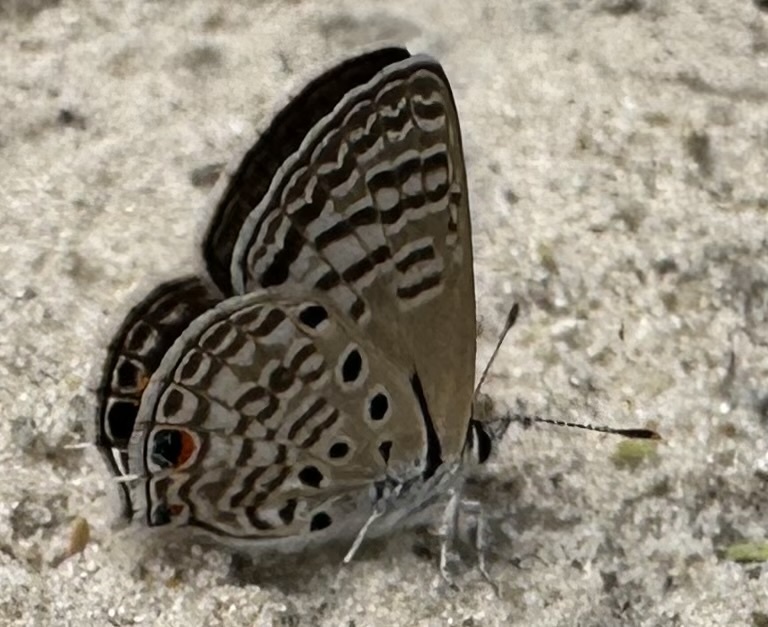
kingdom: Animalia
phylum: Arthropoda
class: Insecta
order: Lepidoptera
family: Lycaenidae
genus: Anthene
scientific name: Anthene amarah
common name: Black-striped hairtail
